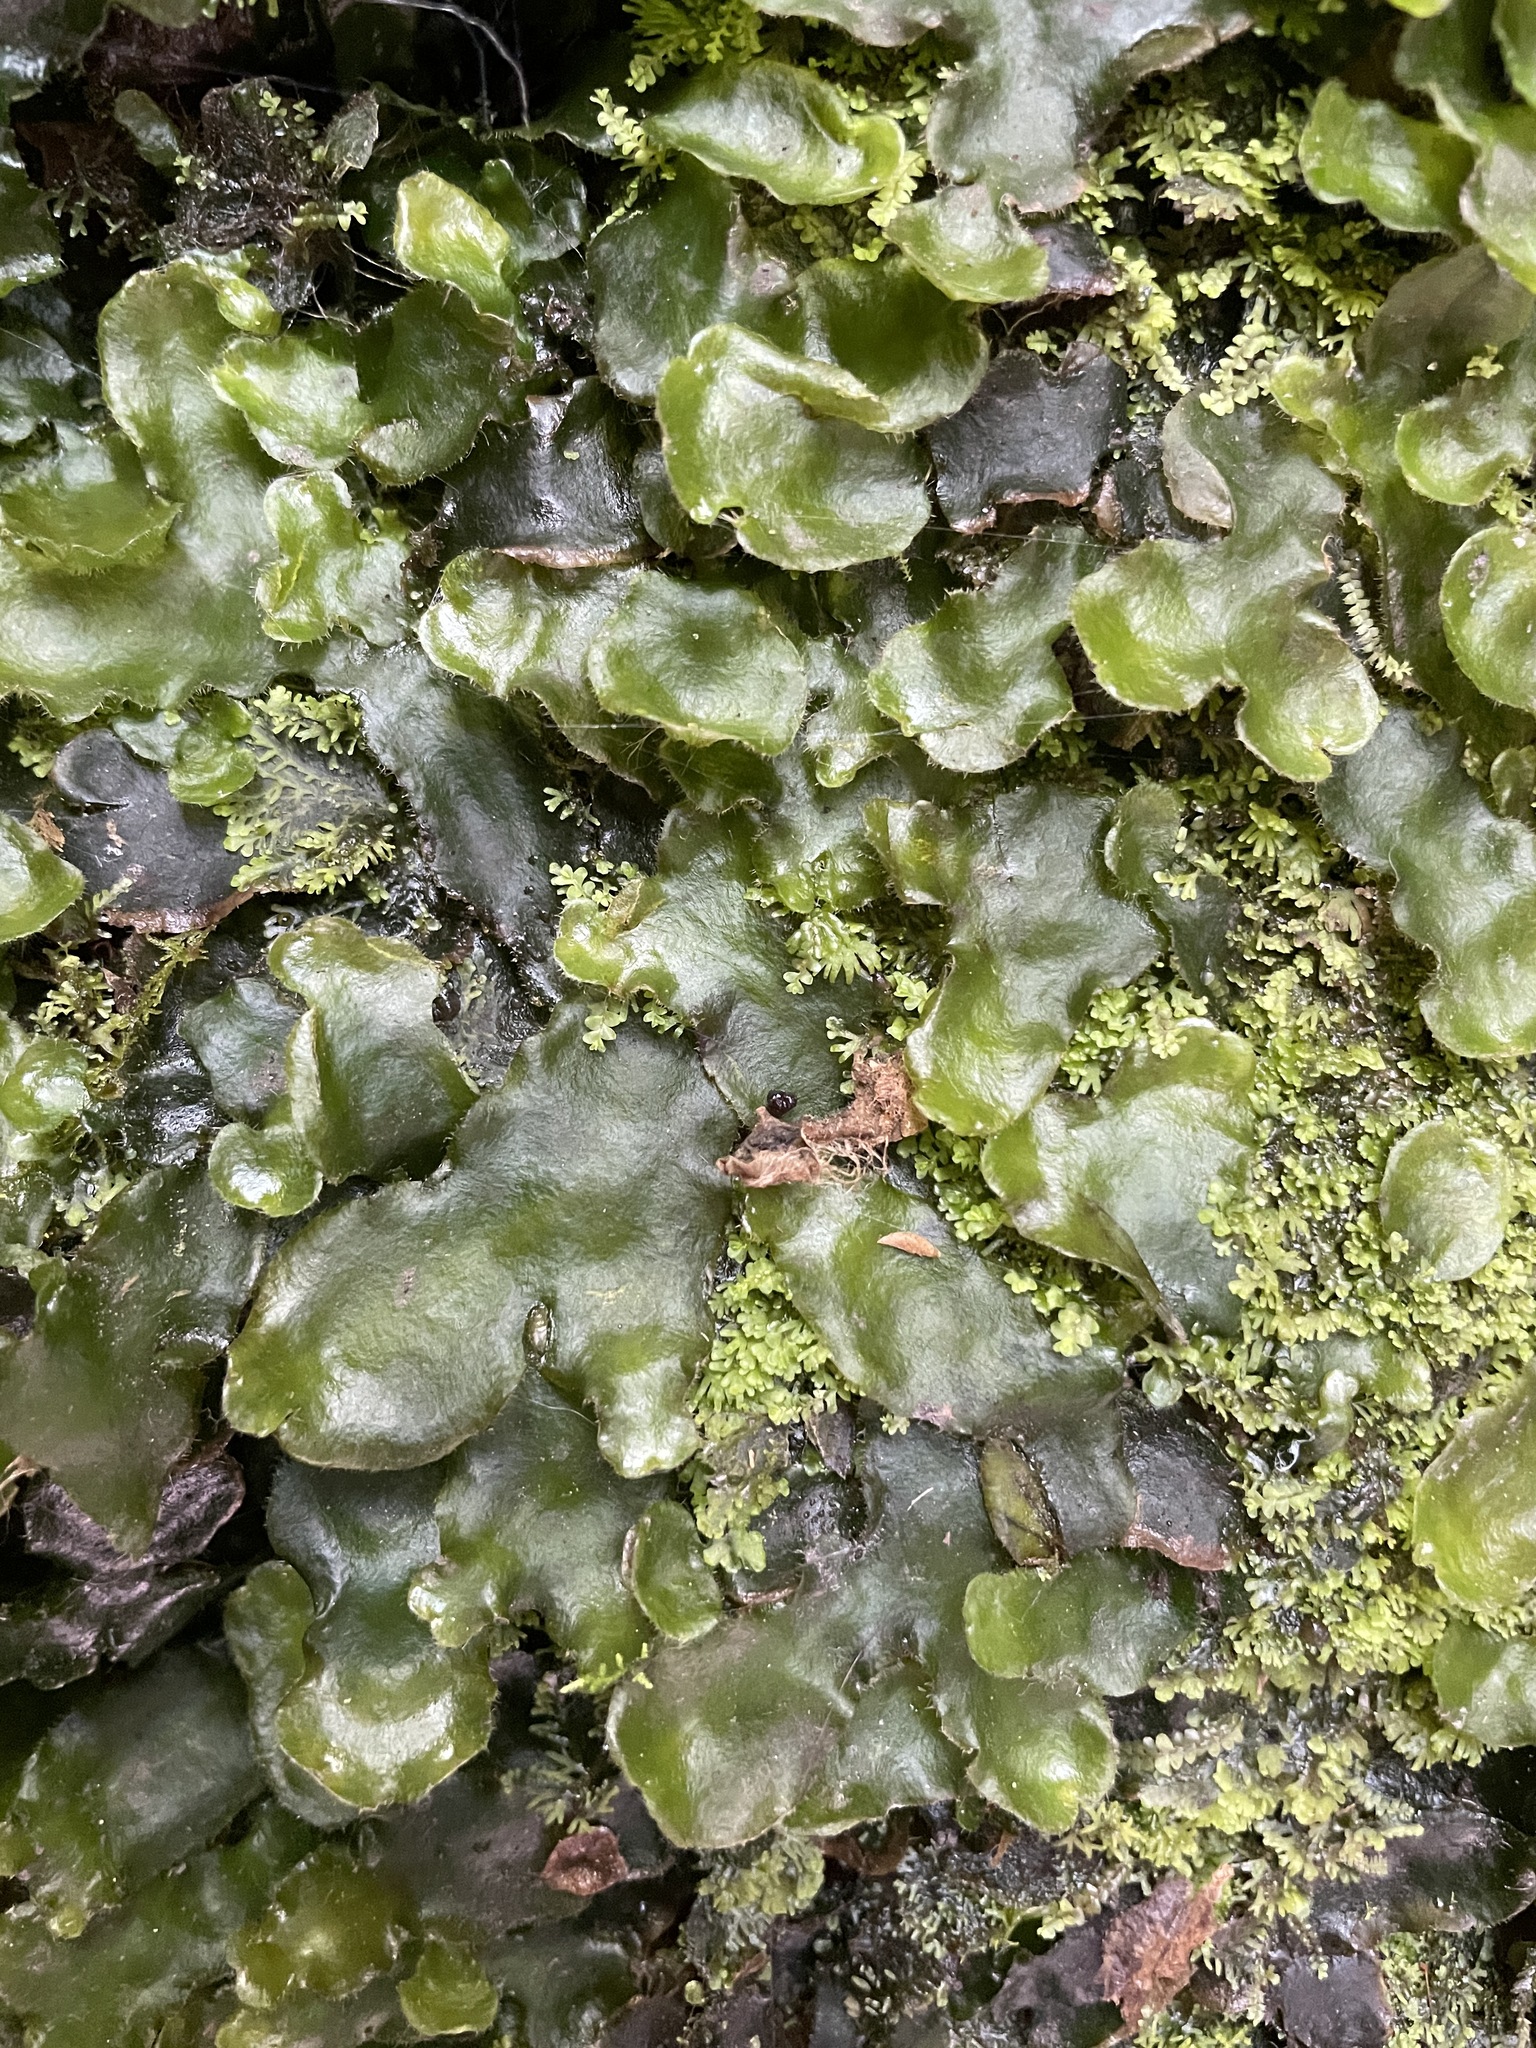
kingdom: Plantae
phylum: Marchantiophyta
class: Marchantiopsida
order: Marchantiales
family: Dumortieraceae
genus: Dumortiera
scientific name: Dumortiera hirsuta
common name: Dumortier's liverwort
